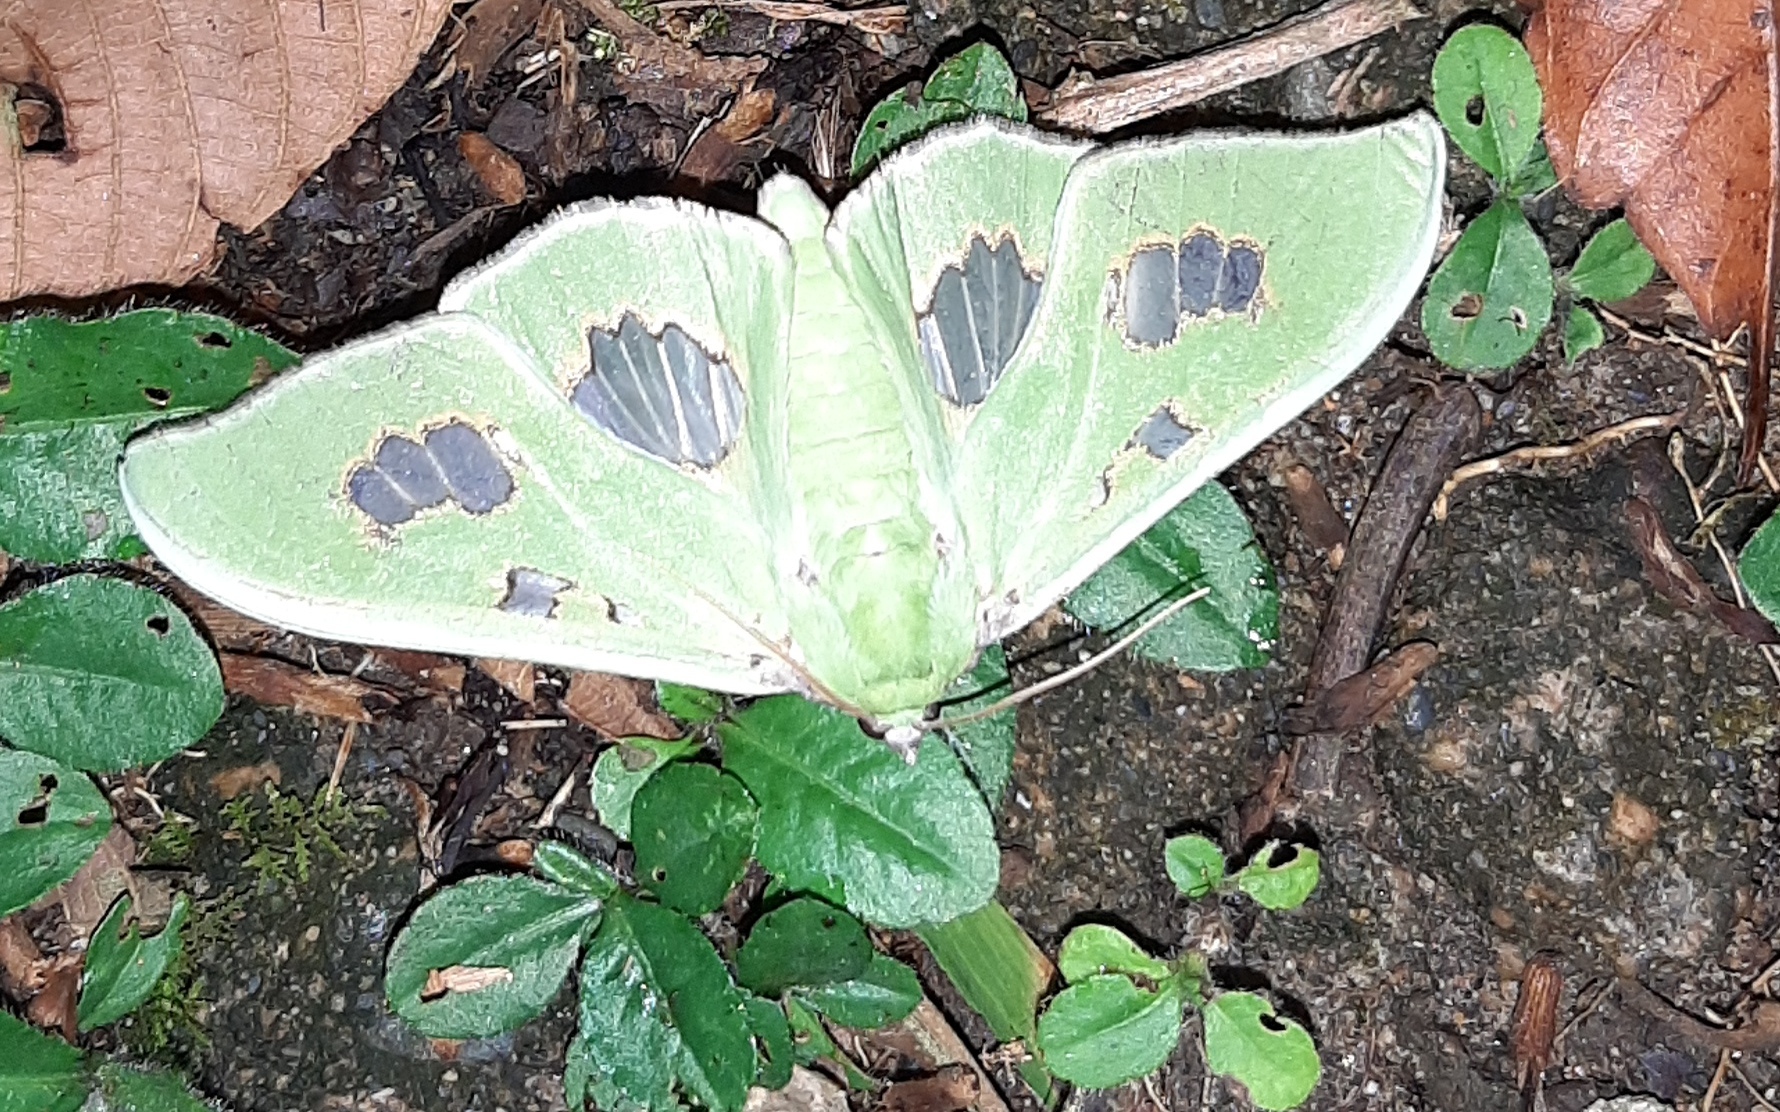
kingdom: Animalia
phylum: Arthropoda
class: Insecta
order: Lepidoptera
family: Crambidae
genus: Siga
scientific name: Siga liris
